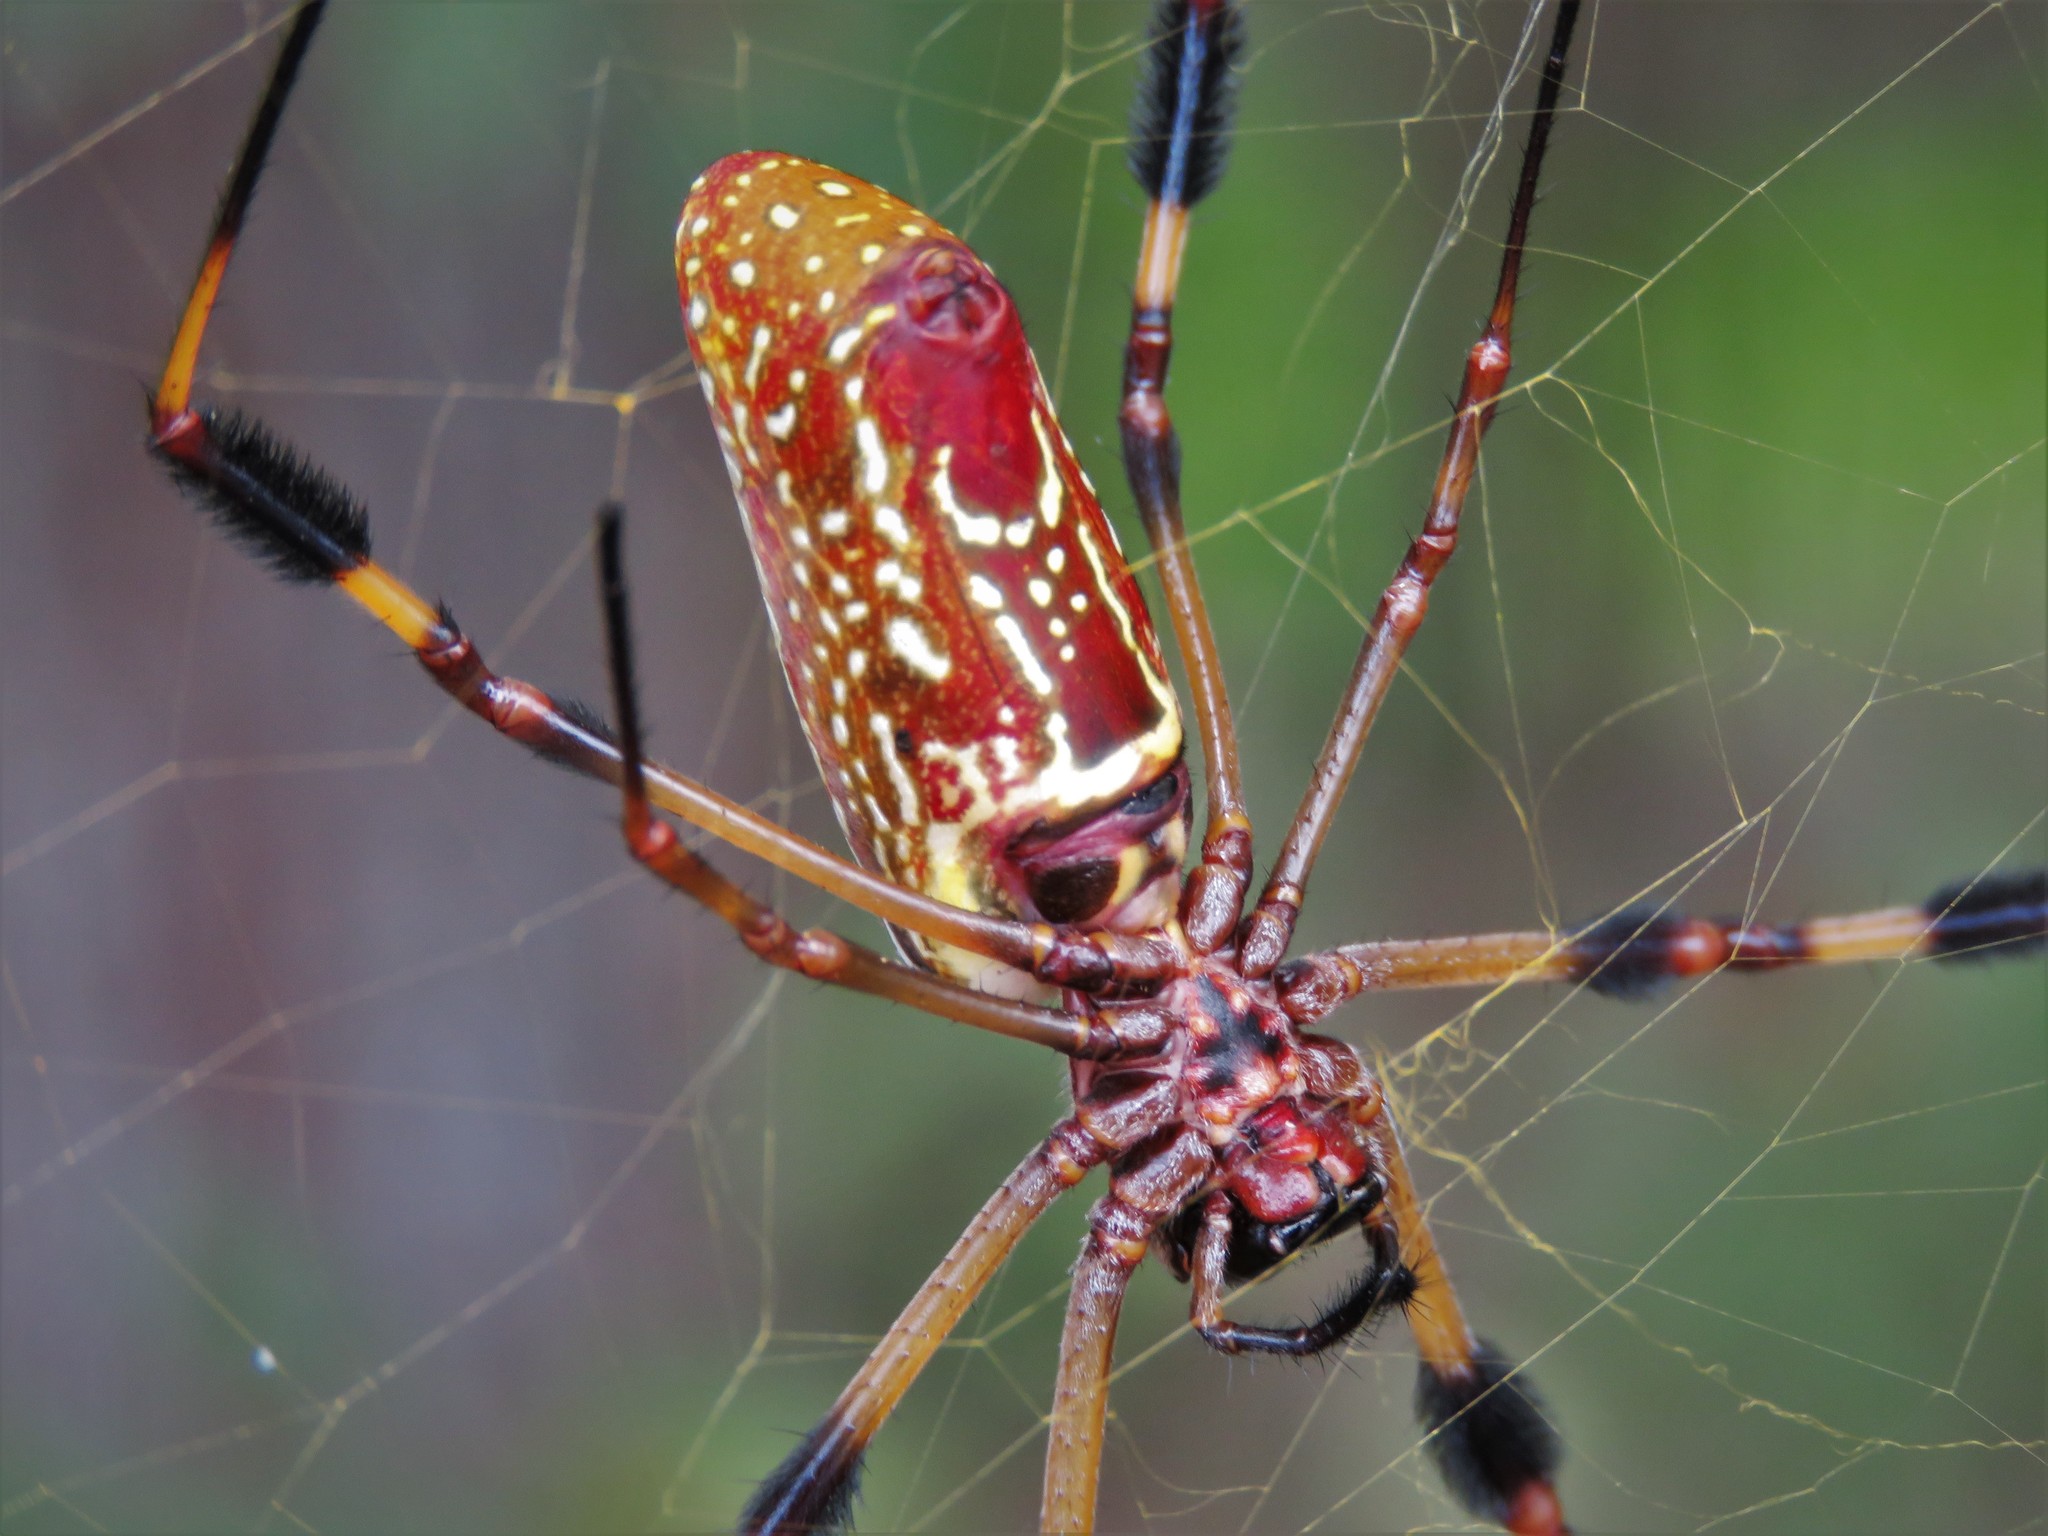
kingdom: Animalia
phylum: Arthropoda
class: Arachnida
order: Araneae
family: Araneidae
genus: Trichonephila
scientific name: Trichonephila clavipes
